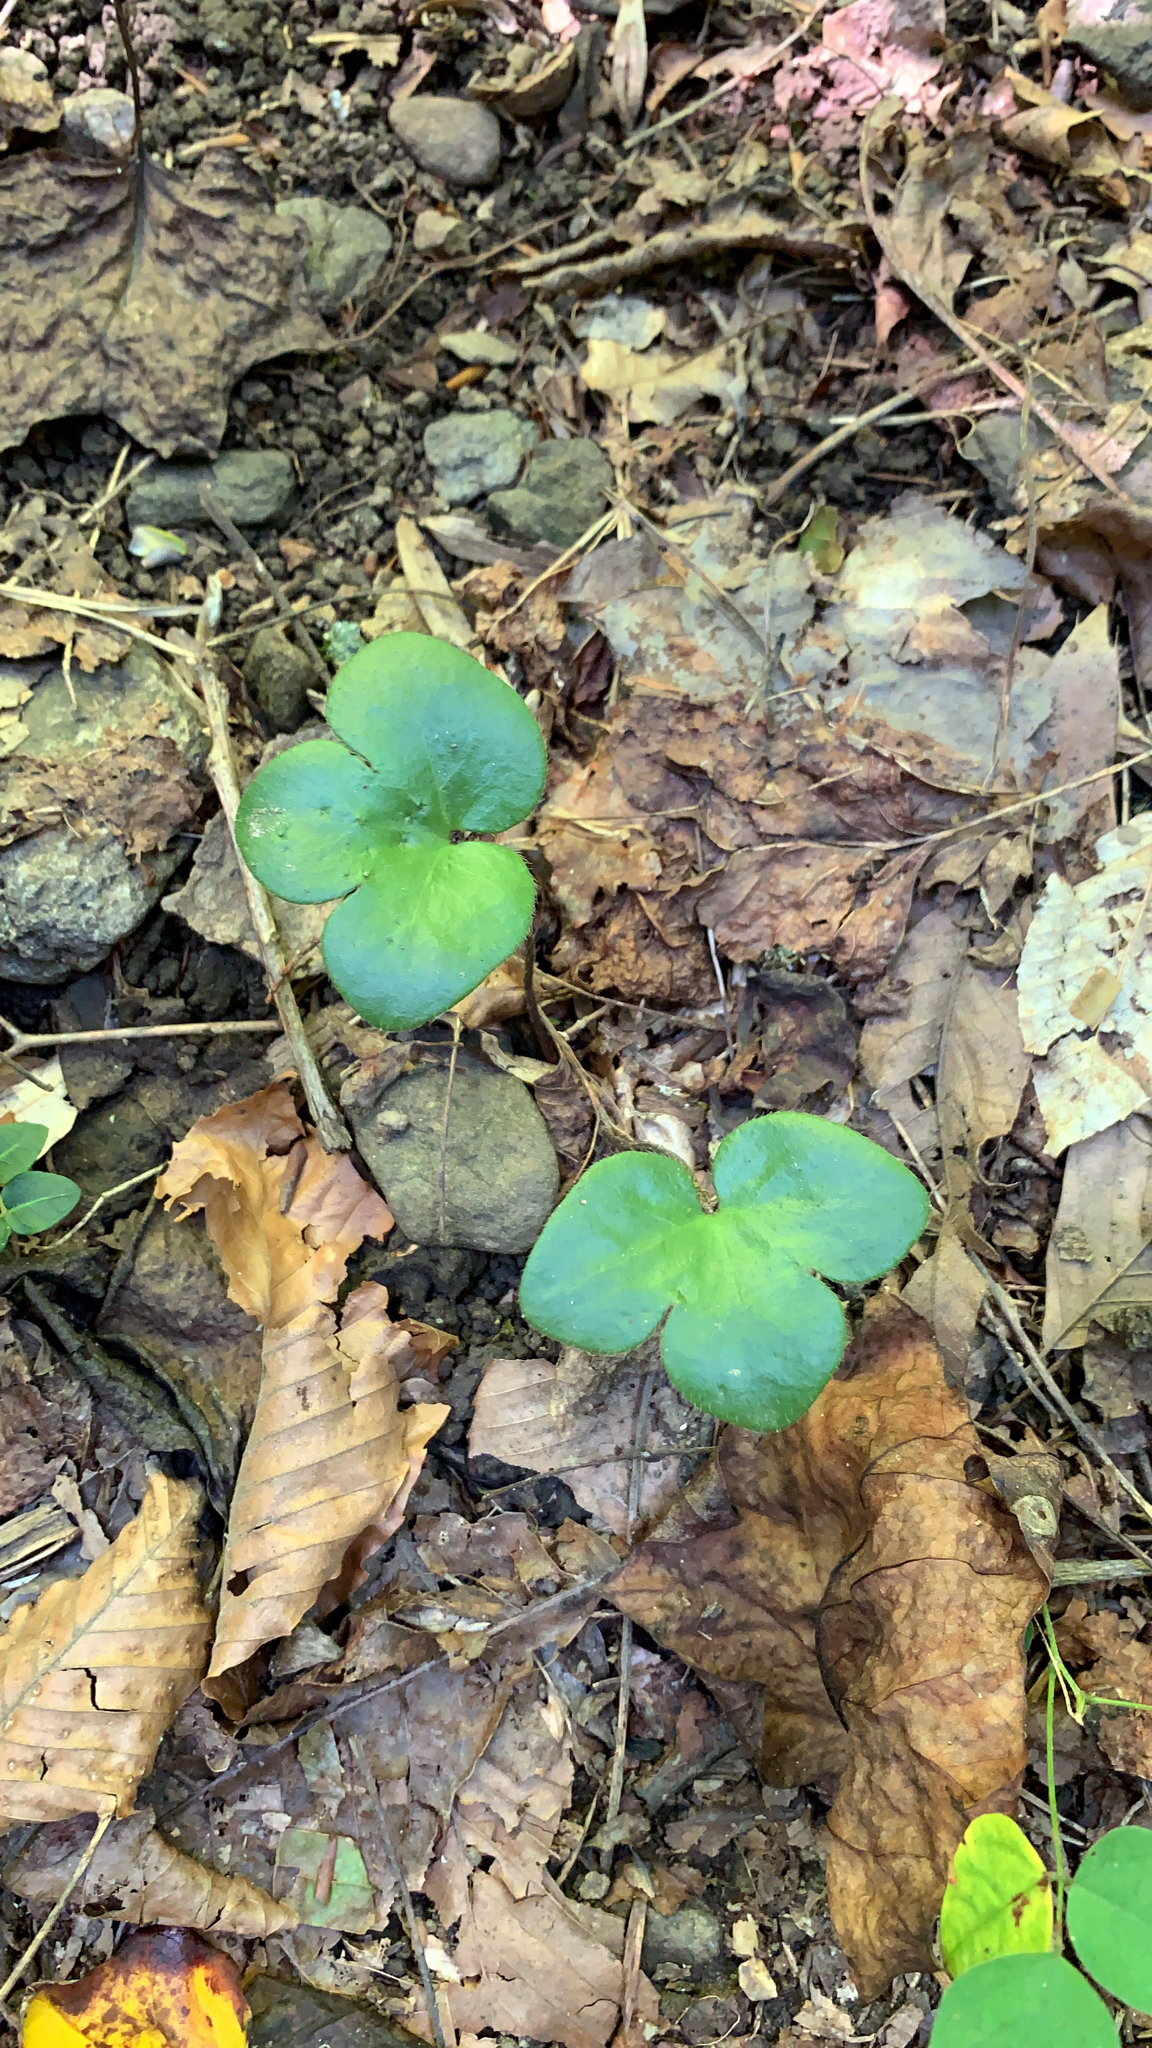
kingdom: Plantae
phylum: Tracheophyta
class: Magnoliopsida
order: Ranunculales
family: Ranunculaceae
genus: Hepatica
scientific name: Hepatica americana
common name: American hepatica
